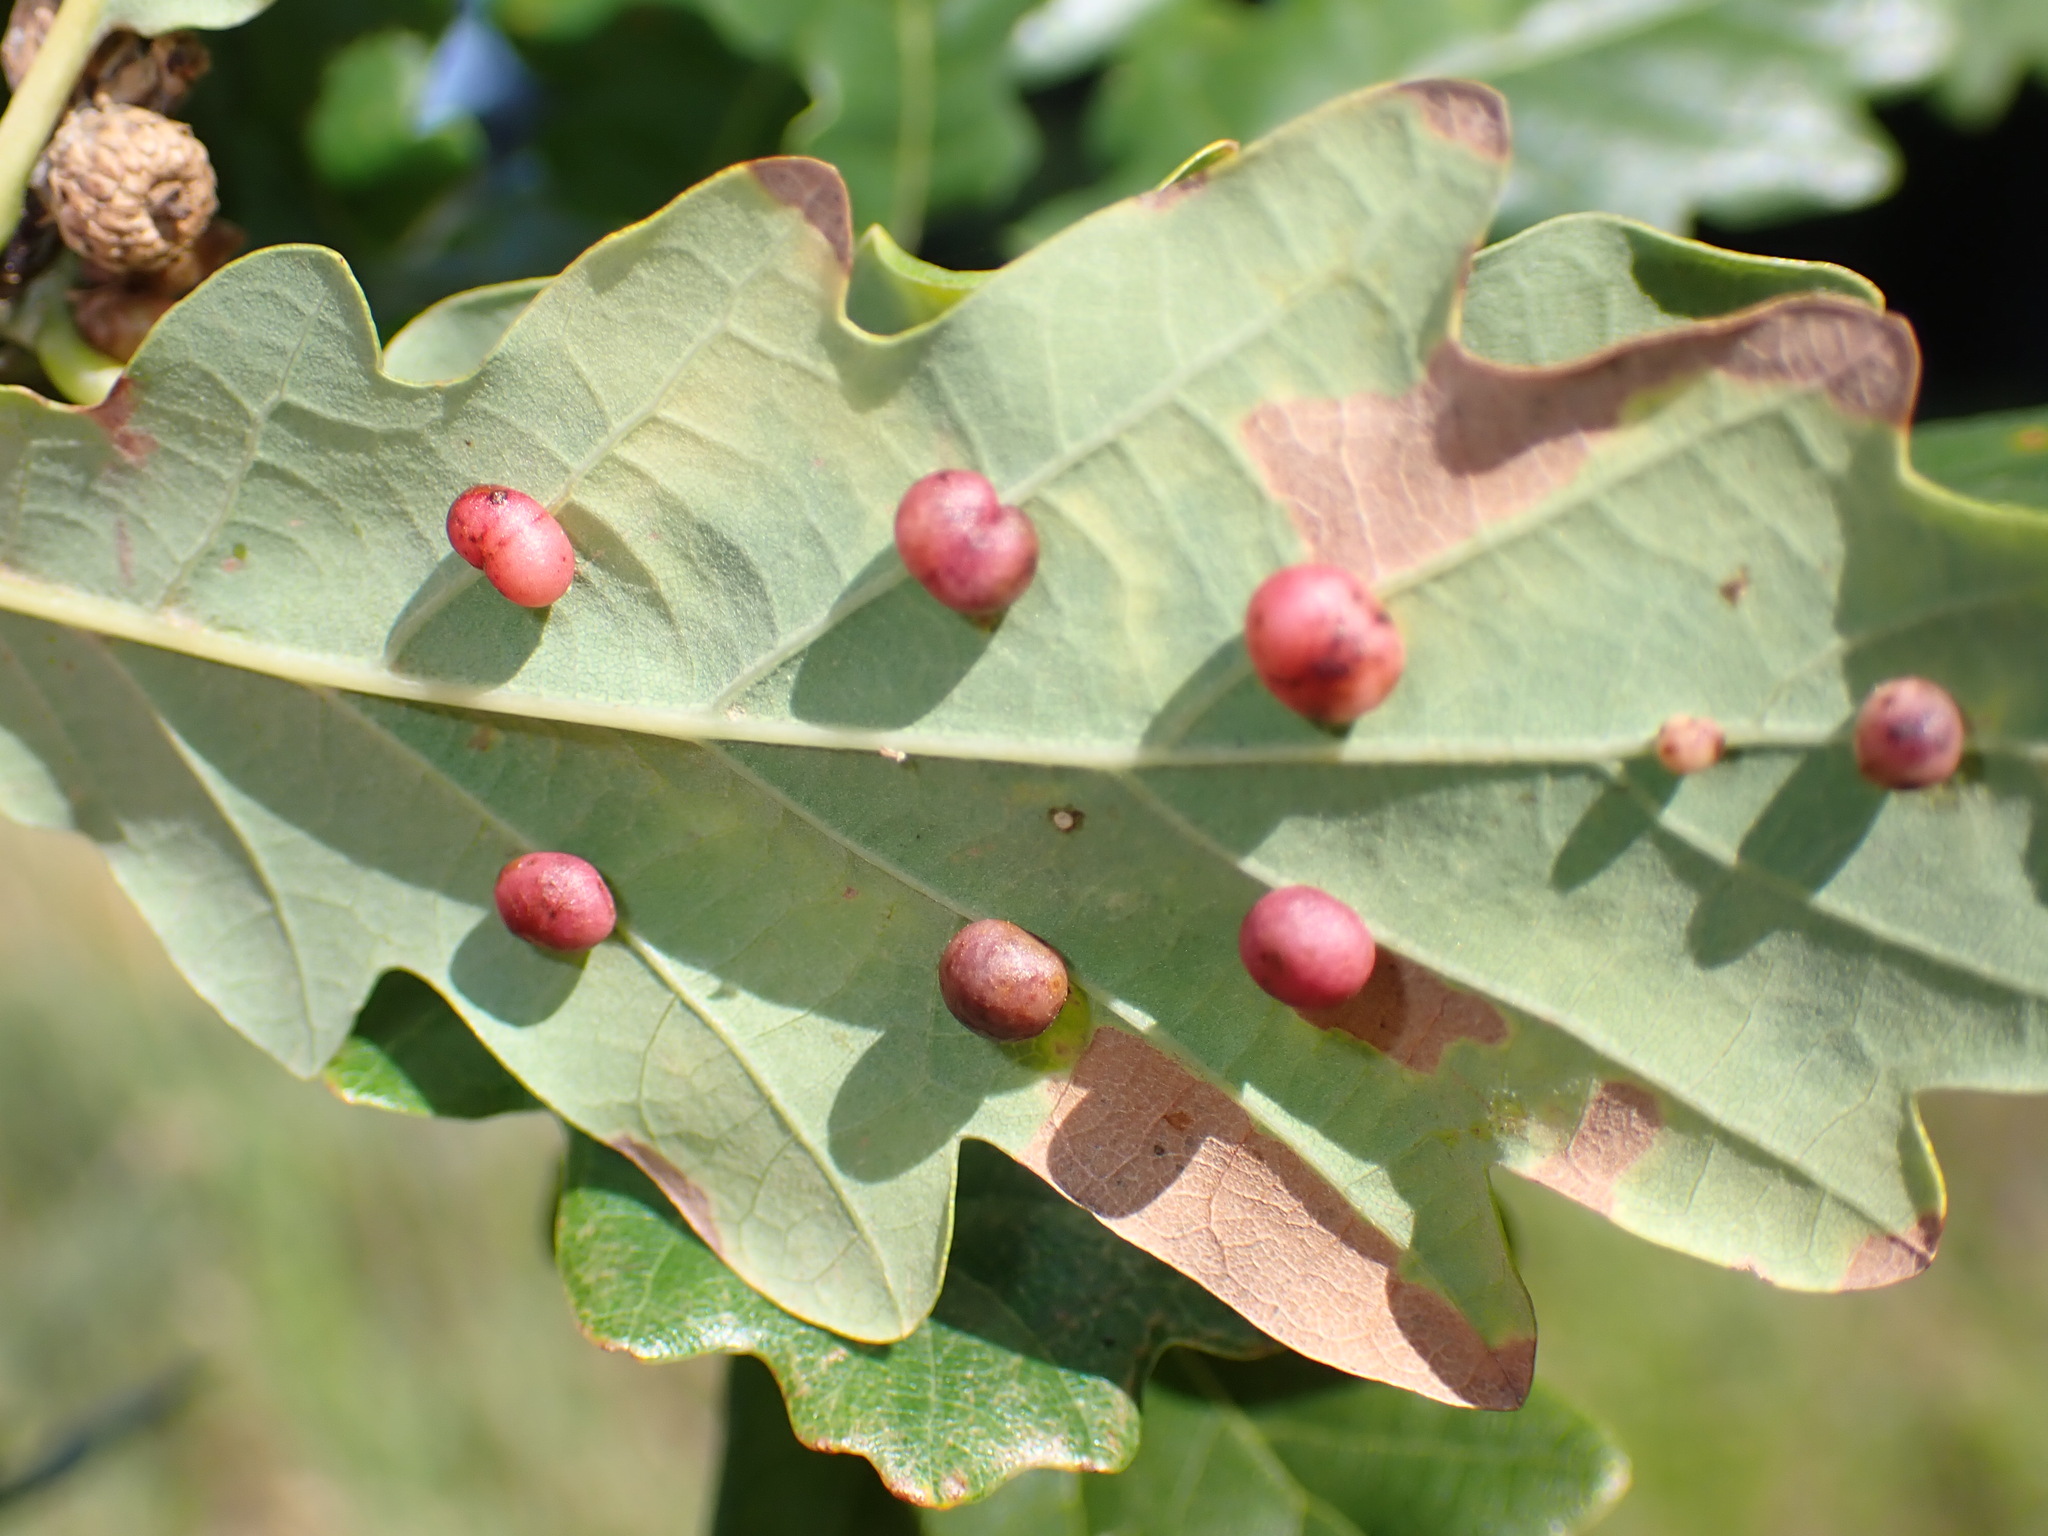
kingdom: Animalia
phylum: Arthropoda
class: Insecta
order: Hymenoptera
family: Cynipidae
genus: Cynips
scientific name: Cynips divisa
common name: Red currant gall
